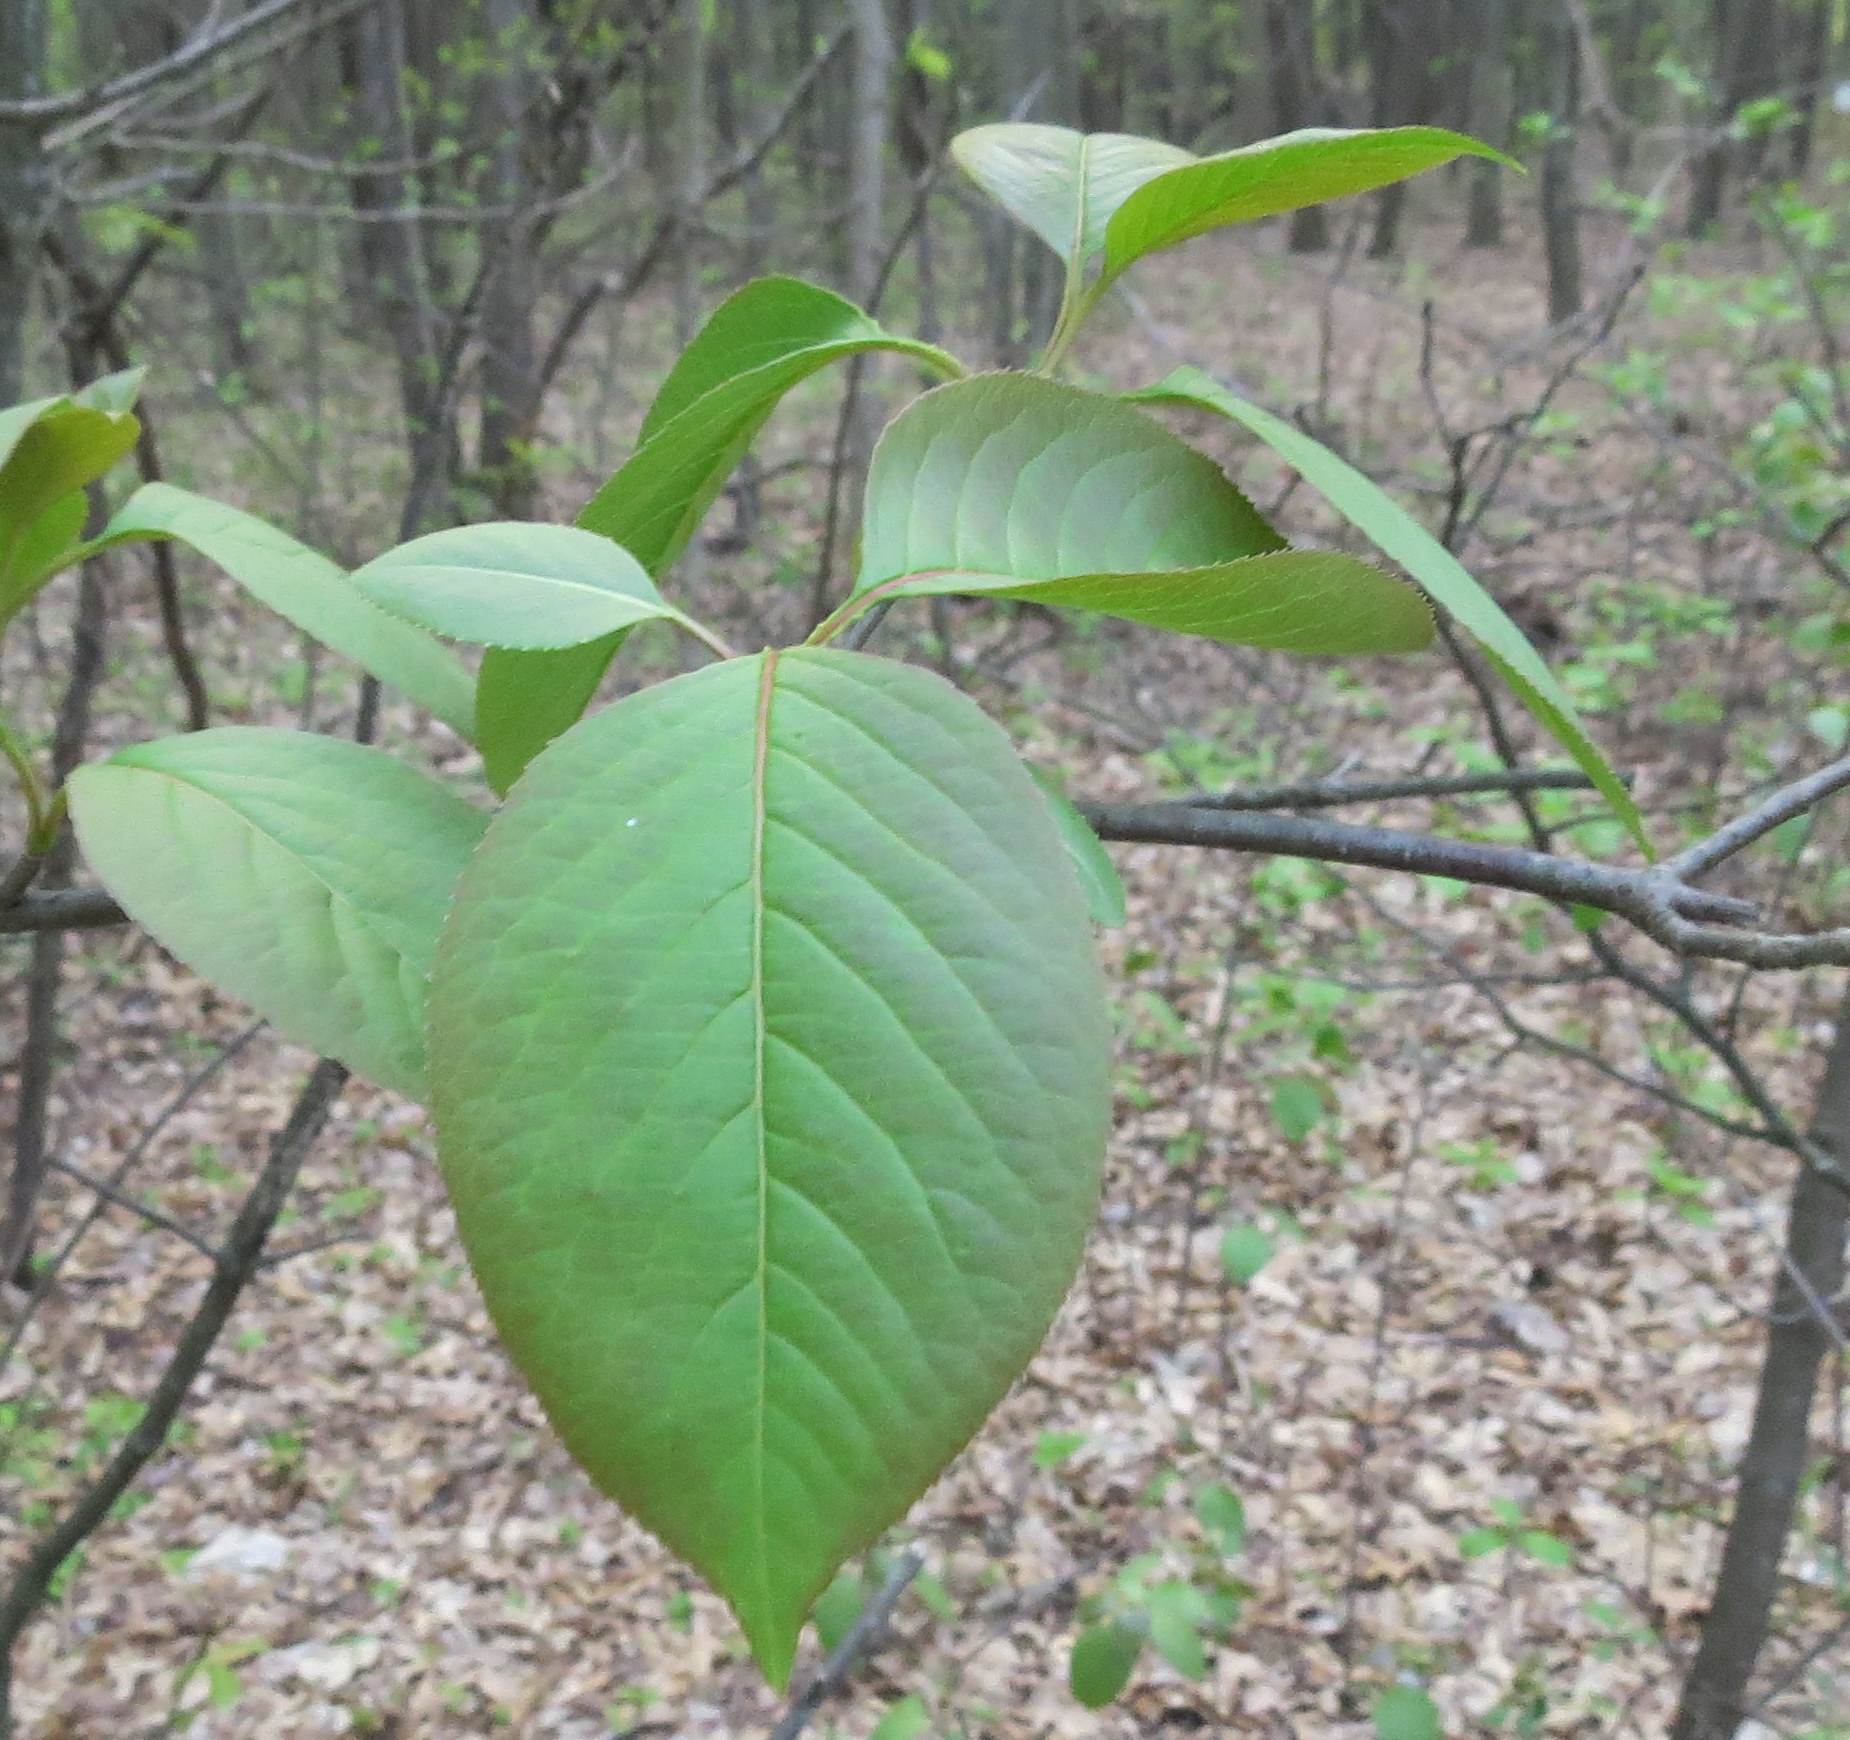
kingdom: Plantae
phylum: Tracheophyta
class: Magnoliopsida
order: Dipsacales
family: Viburnaceae
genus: Viburnum
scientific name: Viburnum lentago
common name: Black haw
